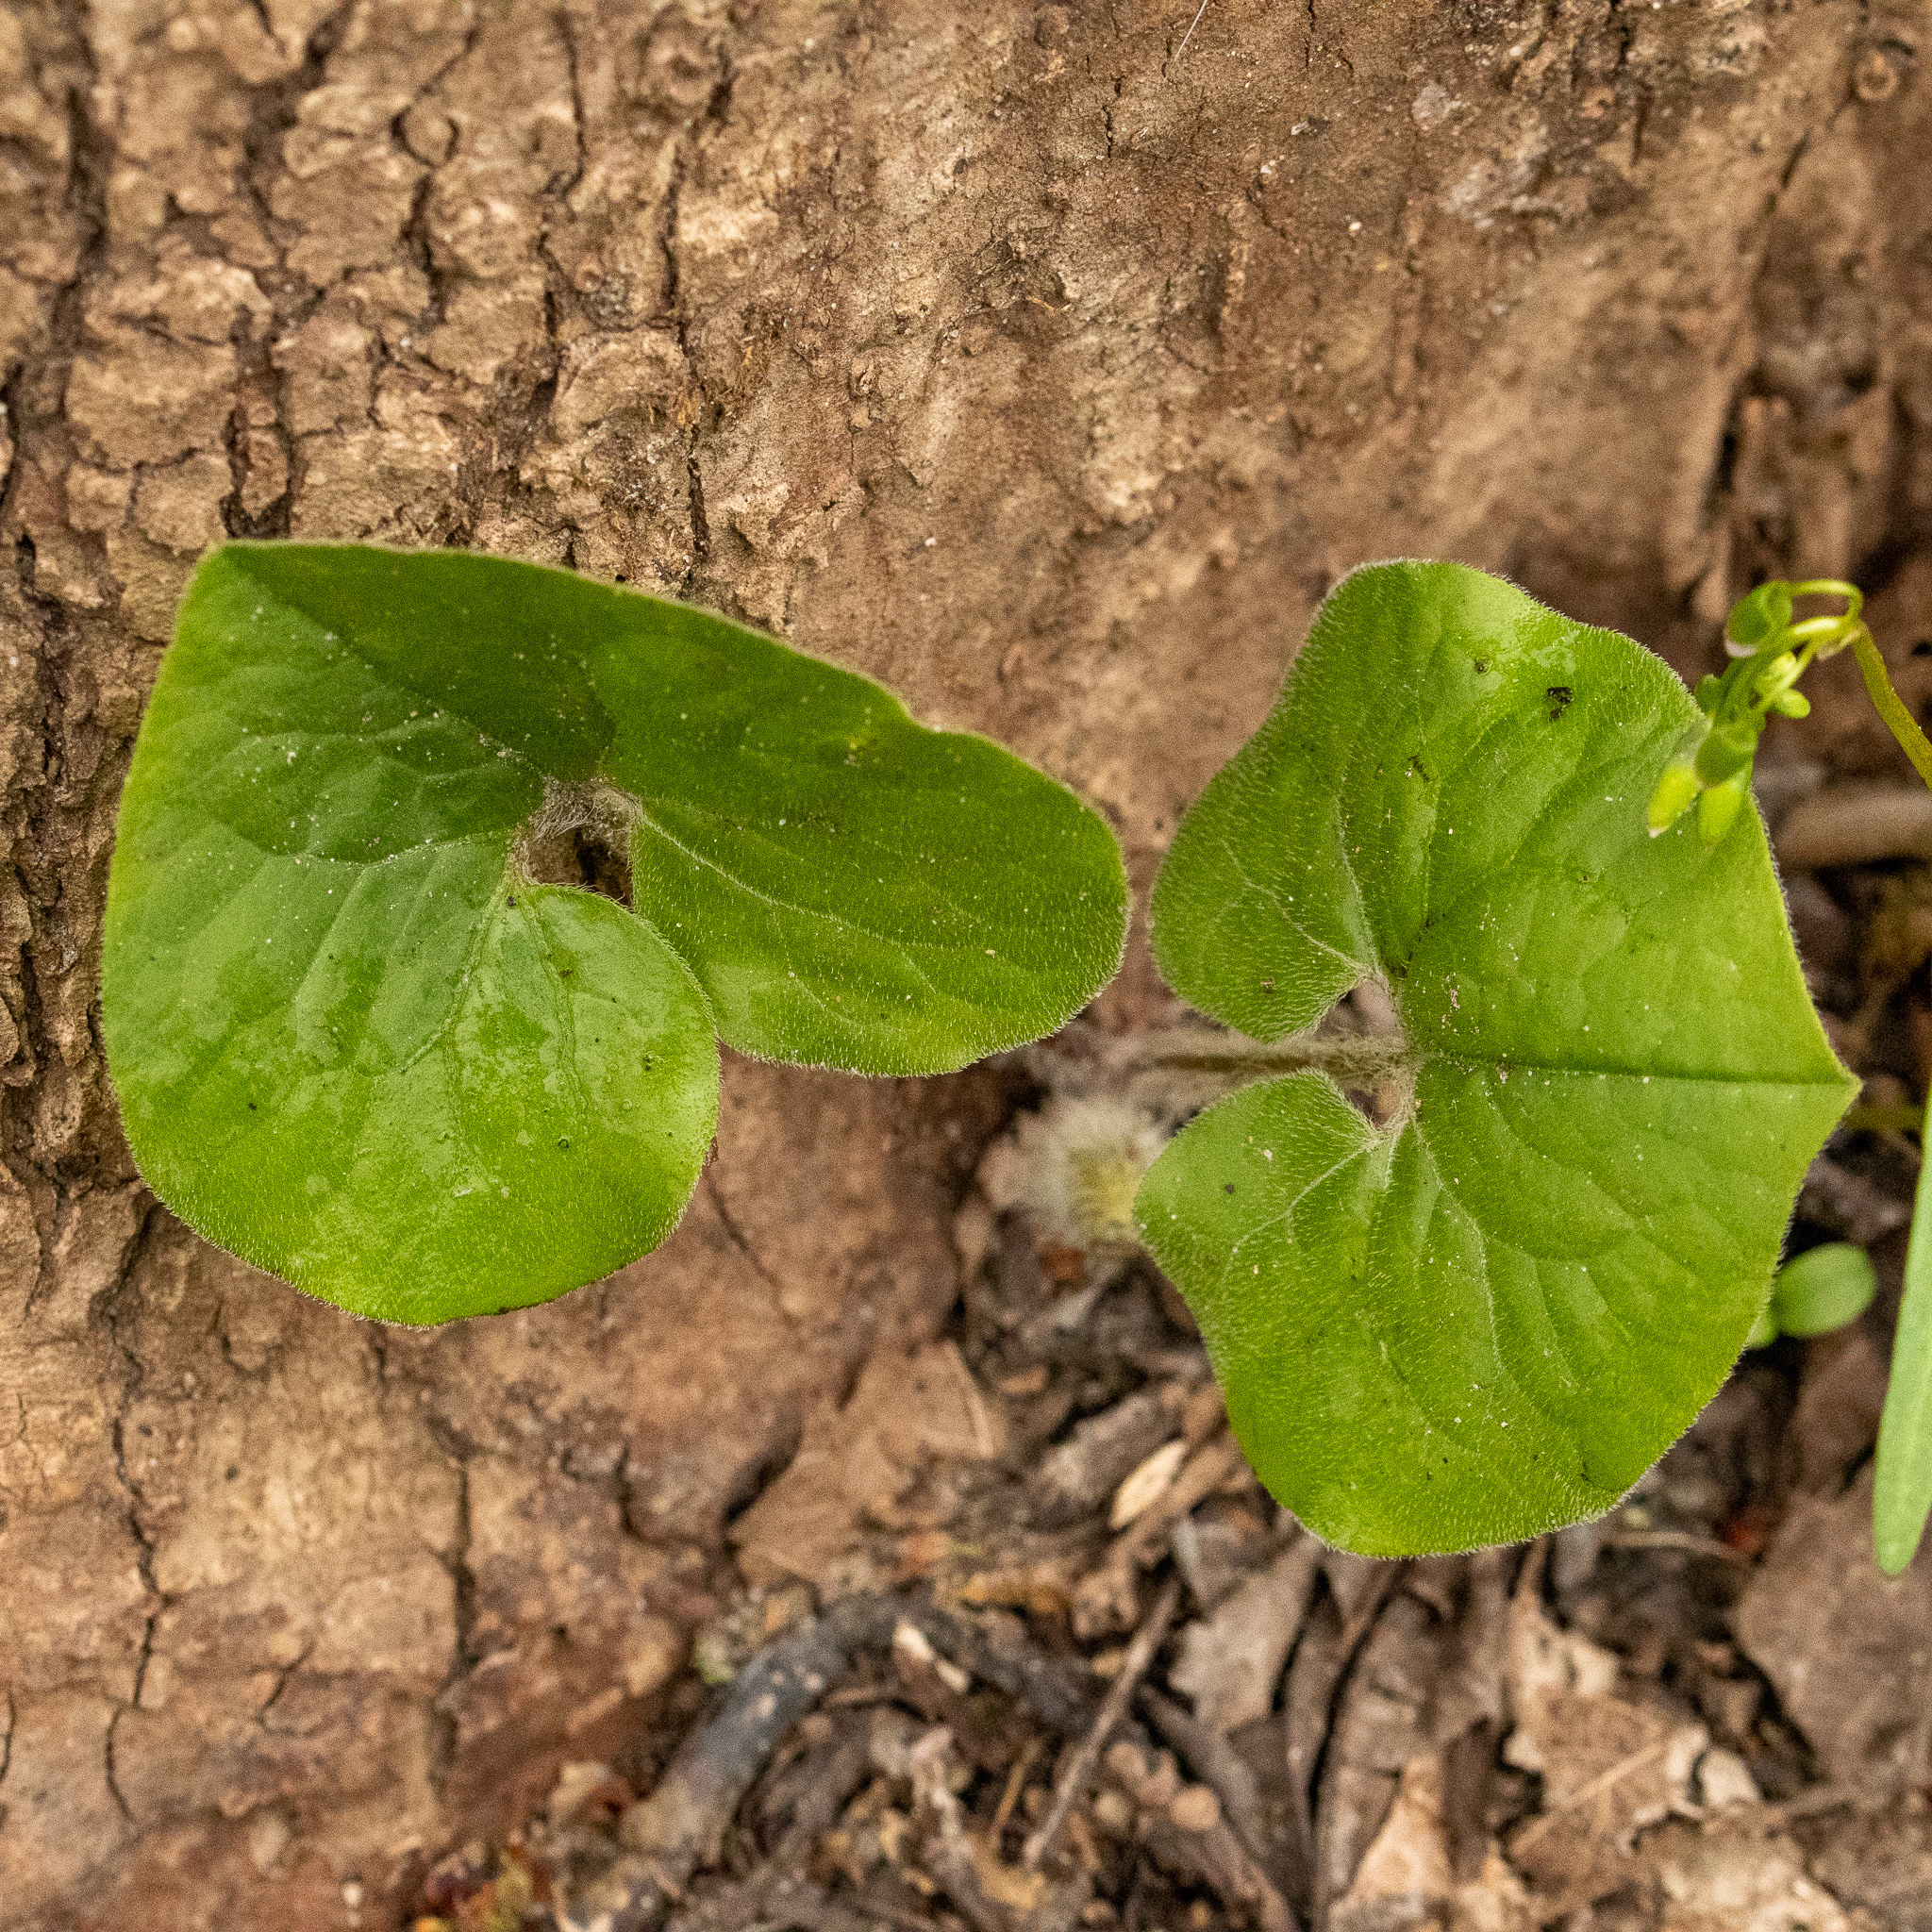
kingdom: Plantae
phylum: Tracheophyta
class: Magnoliopsida
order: Piperales
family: Aristolochiaceae
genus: Asarum
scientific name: Asarum canadense
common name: Wild ginger
